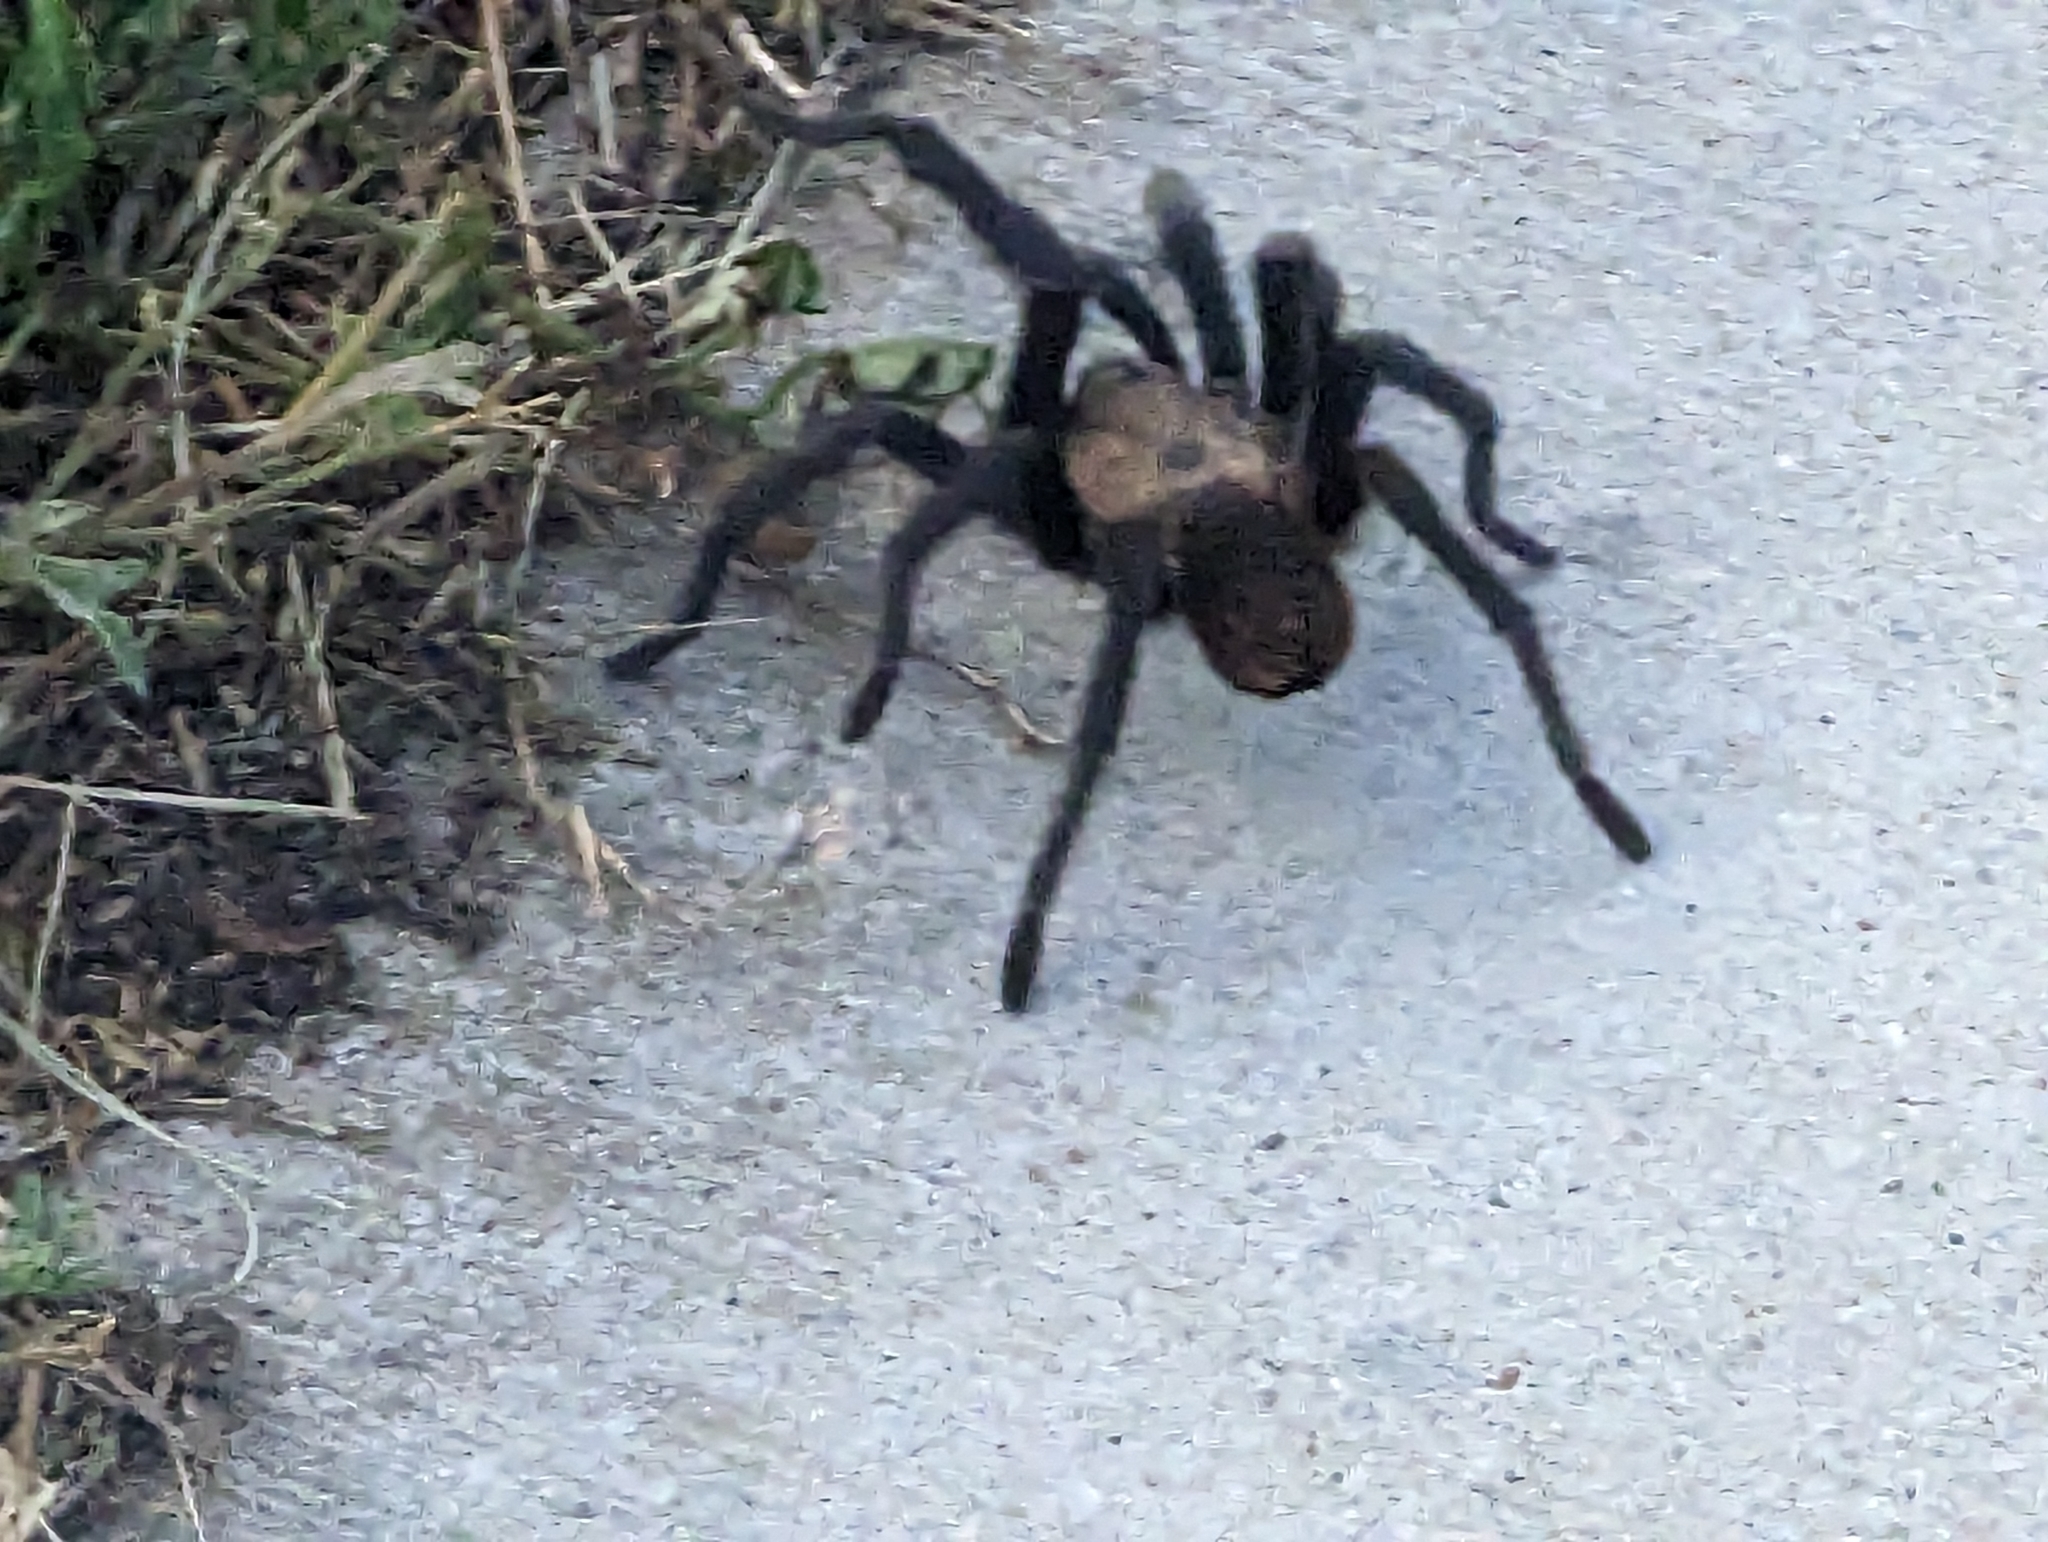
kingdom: Animalia
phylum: Arthropoda
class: Arachnida
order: Araneae
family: Theraphosidae
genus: Aphonopelma
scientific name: Aphonopelma hentzi
